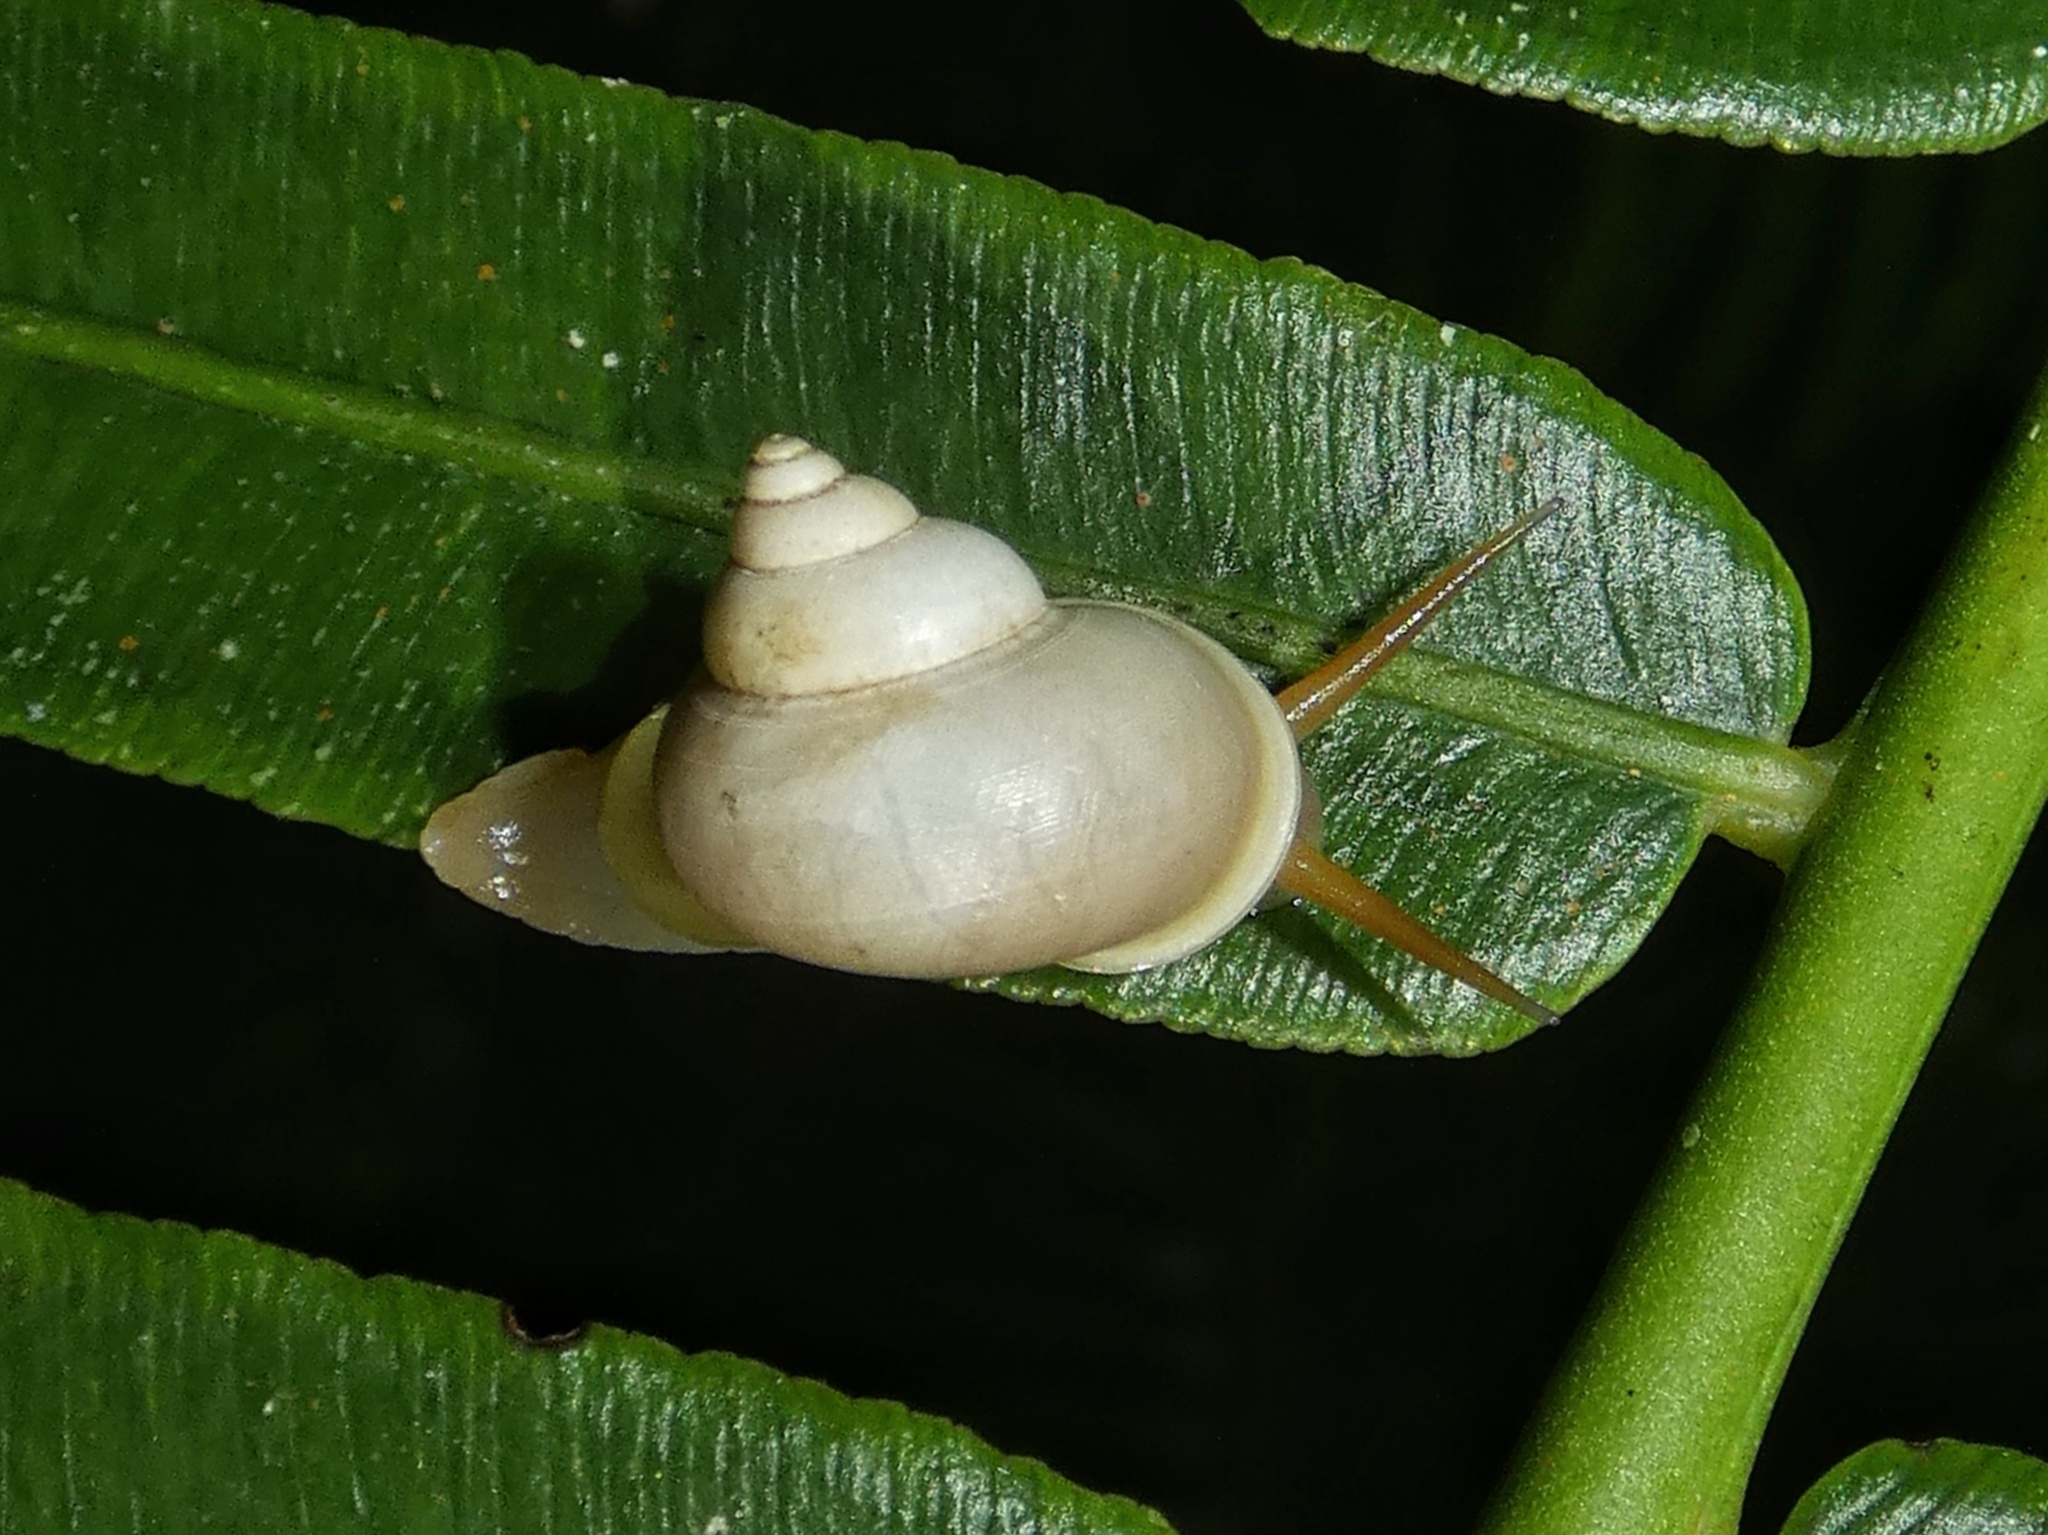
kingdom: Animalia
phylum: Mollusca
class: Gastropoda
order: Architaenioglossa
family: Cyclophoridae
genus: Leptopoma
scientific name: Leptopoma perlucidum
